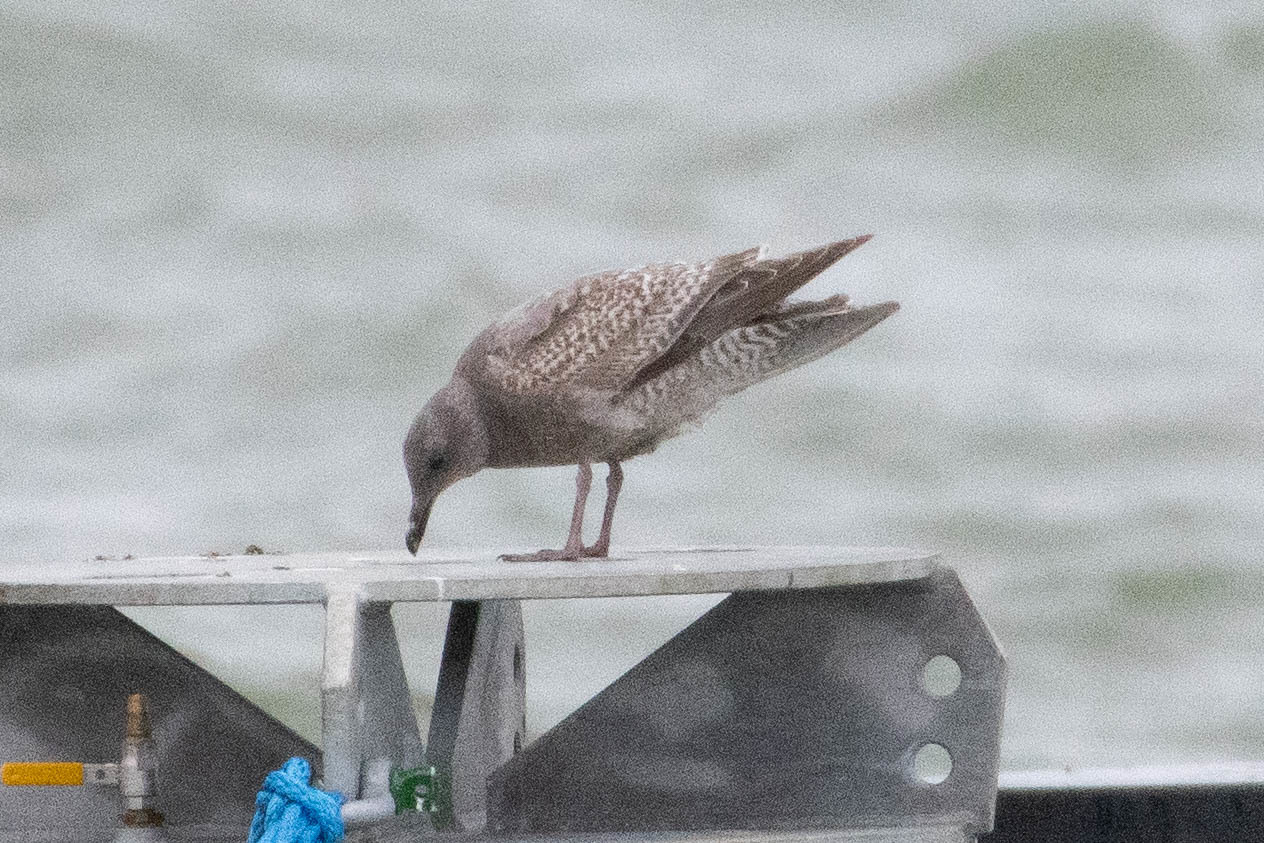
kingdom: Animalia
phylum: Chordata
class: Aves
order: Charadriiformes
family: Laridae
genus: Larus
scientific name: Larus
